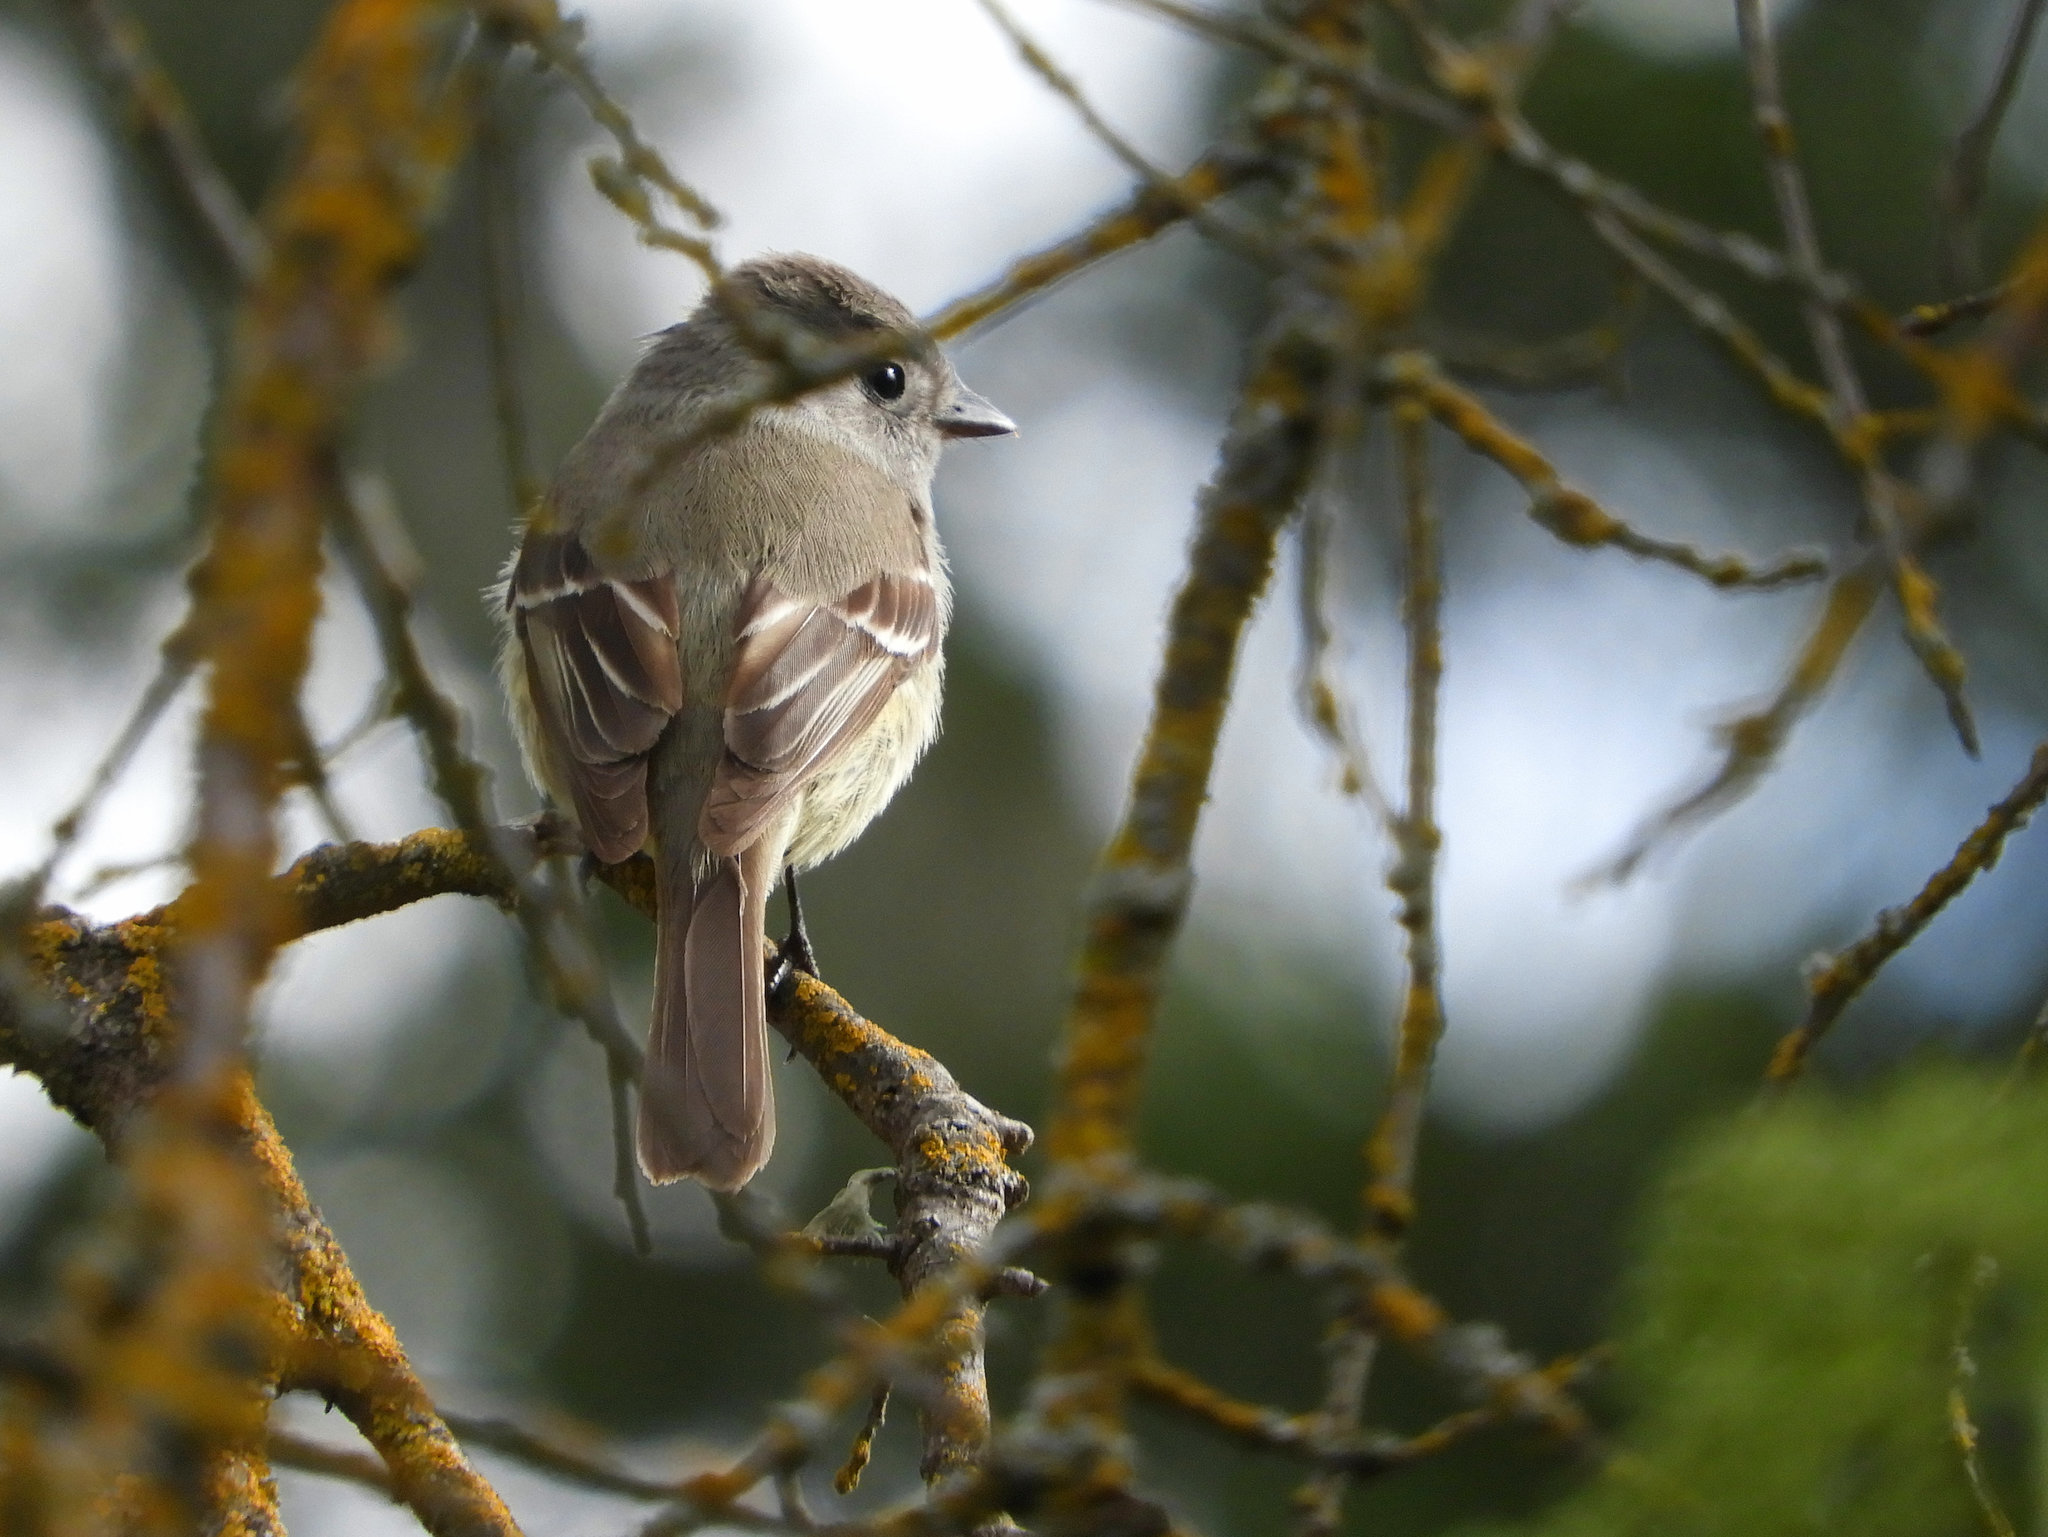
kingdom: Animalia
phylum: Chordata
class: Aves
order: Passeriformes
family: Tyrannidae
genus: Myiarchus
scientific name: Myiarchus cinerascens
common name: Ash-throated flycatcher
